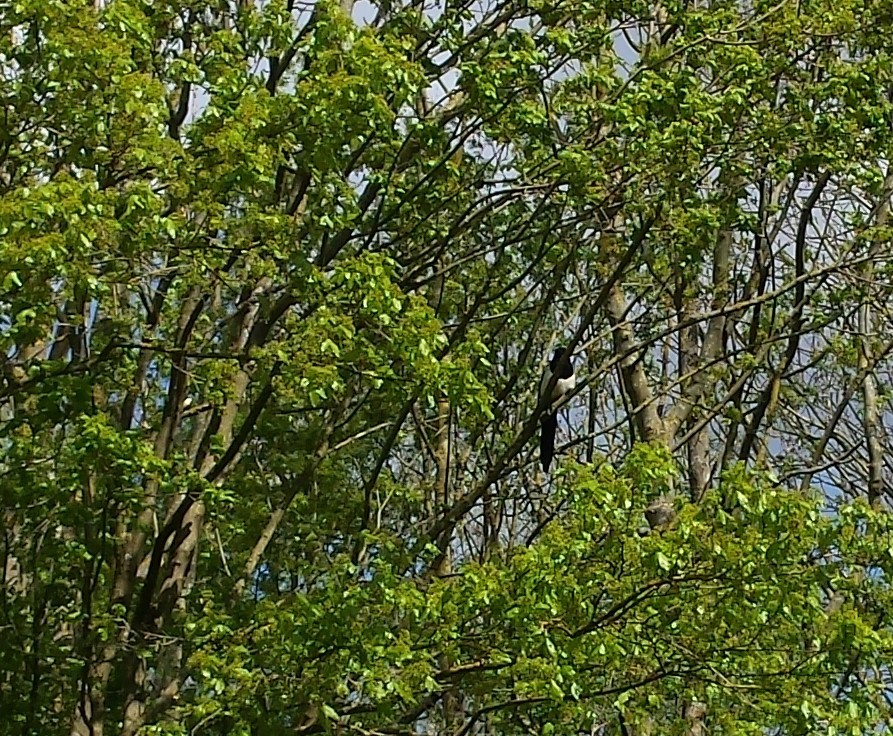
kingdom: Animalia
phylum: Chordata
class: Aves
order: Passeriformes
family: Corvidae
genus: Pica
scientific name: Pica pica
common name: Eurasian magpie
